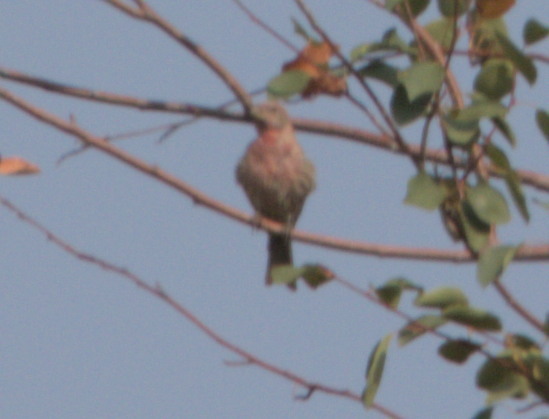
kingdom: Animalia
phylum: Chordata
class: Aves
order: Passeriformes
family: Fringillidae
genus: Haemorhous
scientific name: Haemorhous mexicanus
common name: House finch
